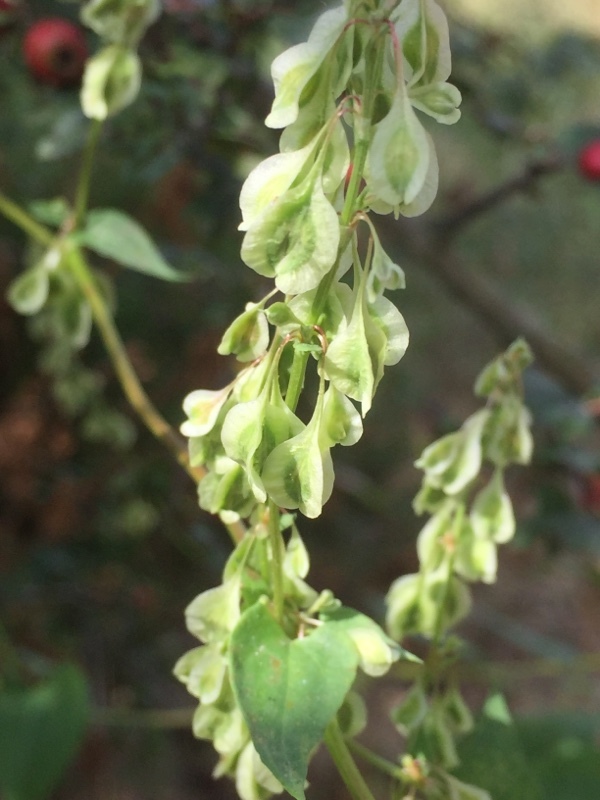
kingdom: Plantae
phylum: Tracheophyta
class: Magnoliopsida
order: Caryophyllales
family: Polygonaceae
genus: Fallopia
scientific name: Fallopia dumetorum
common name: Copse-bindweed
